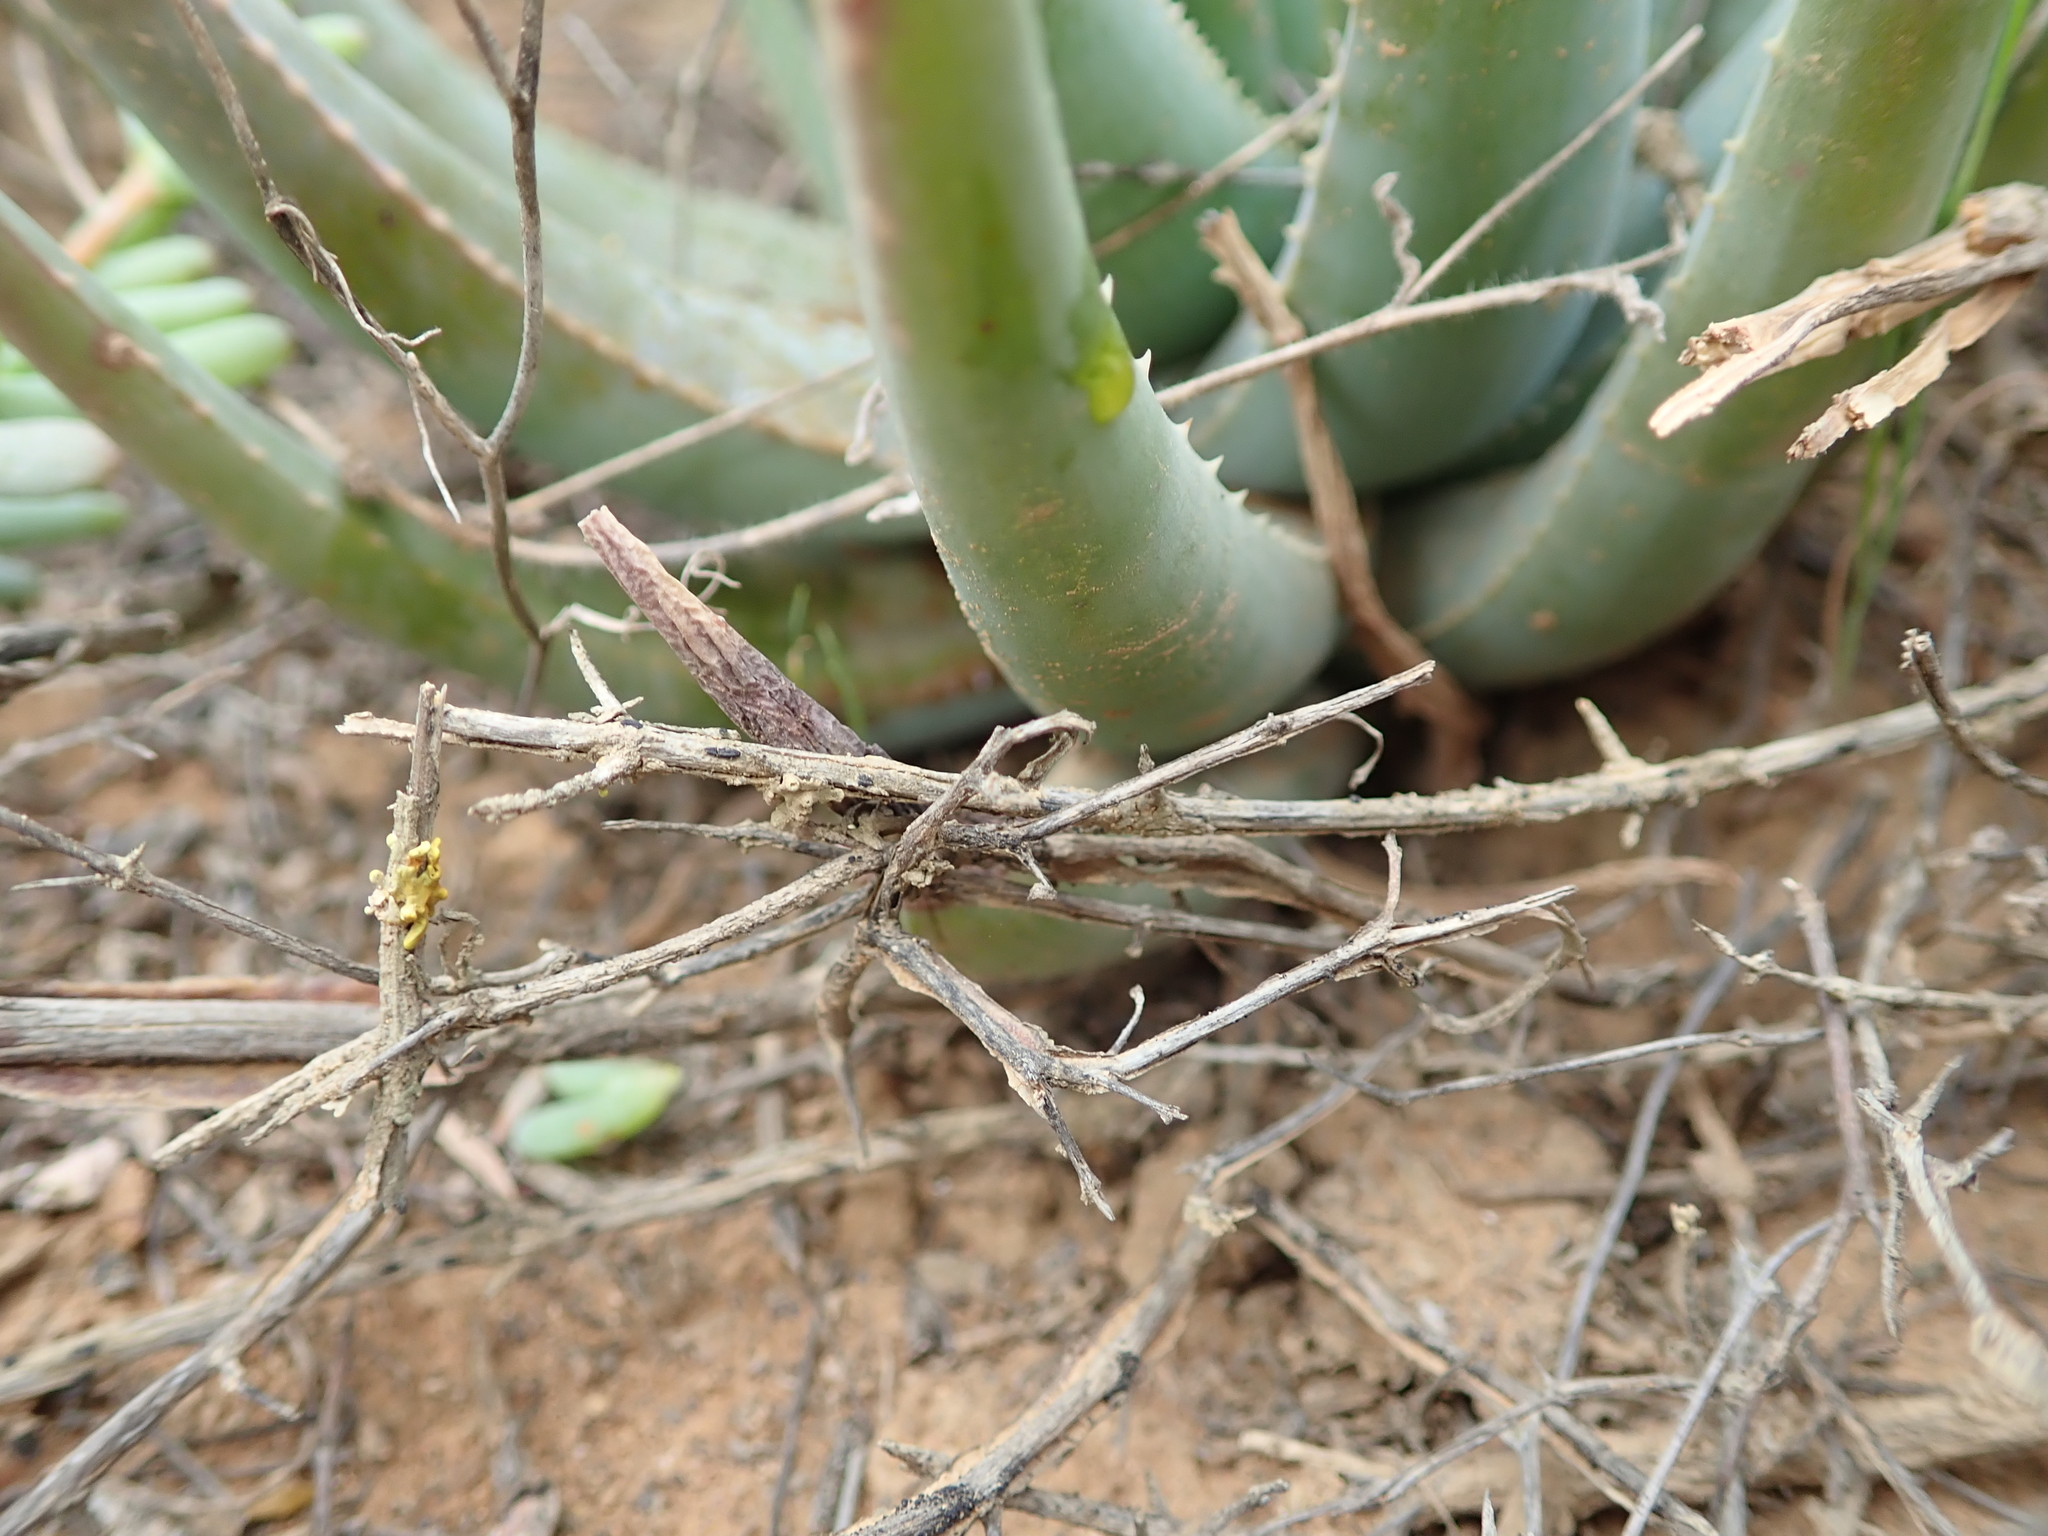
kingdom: Plantae
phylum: Tracheophyta
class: Liliopsida
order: Asparagales
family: Asphodelaceae
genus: Aloe
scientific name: Aloe krapohliana
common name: Krapohl's aloe
